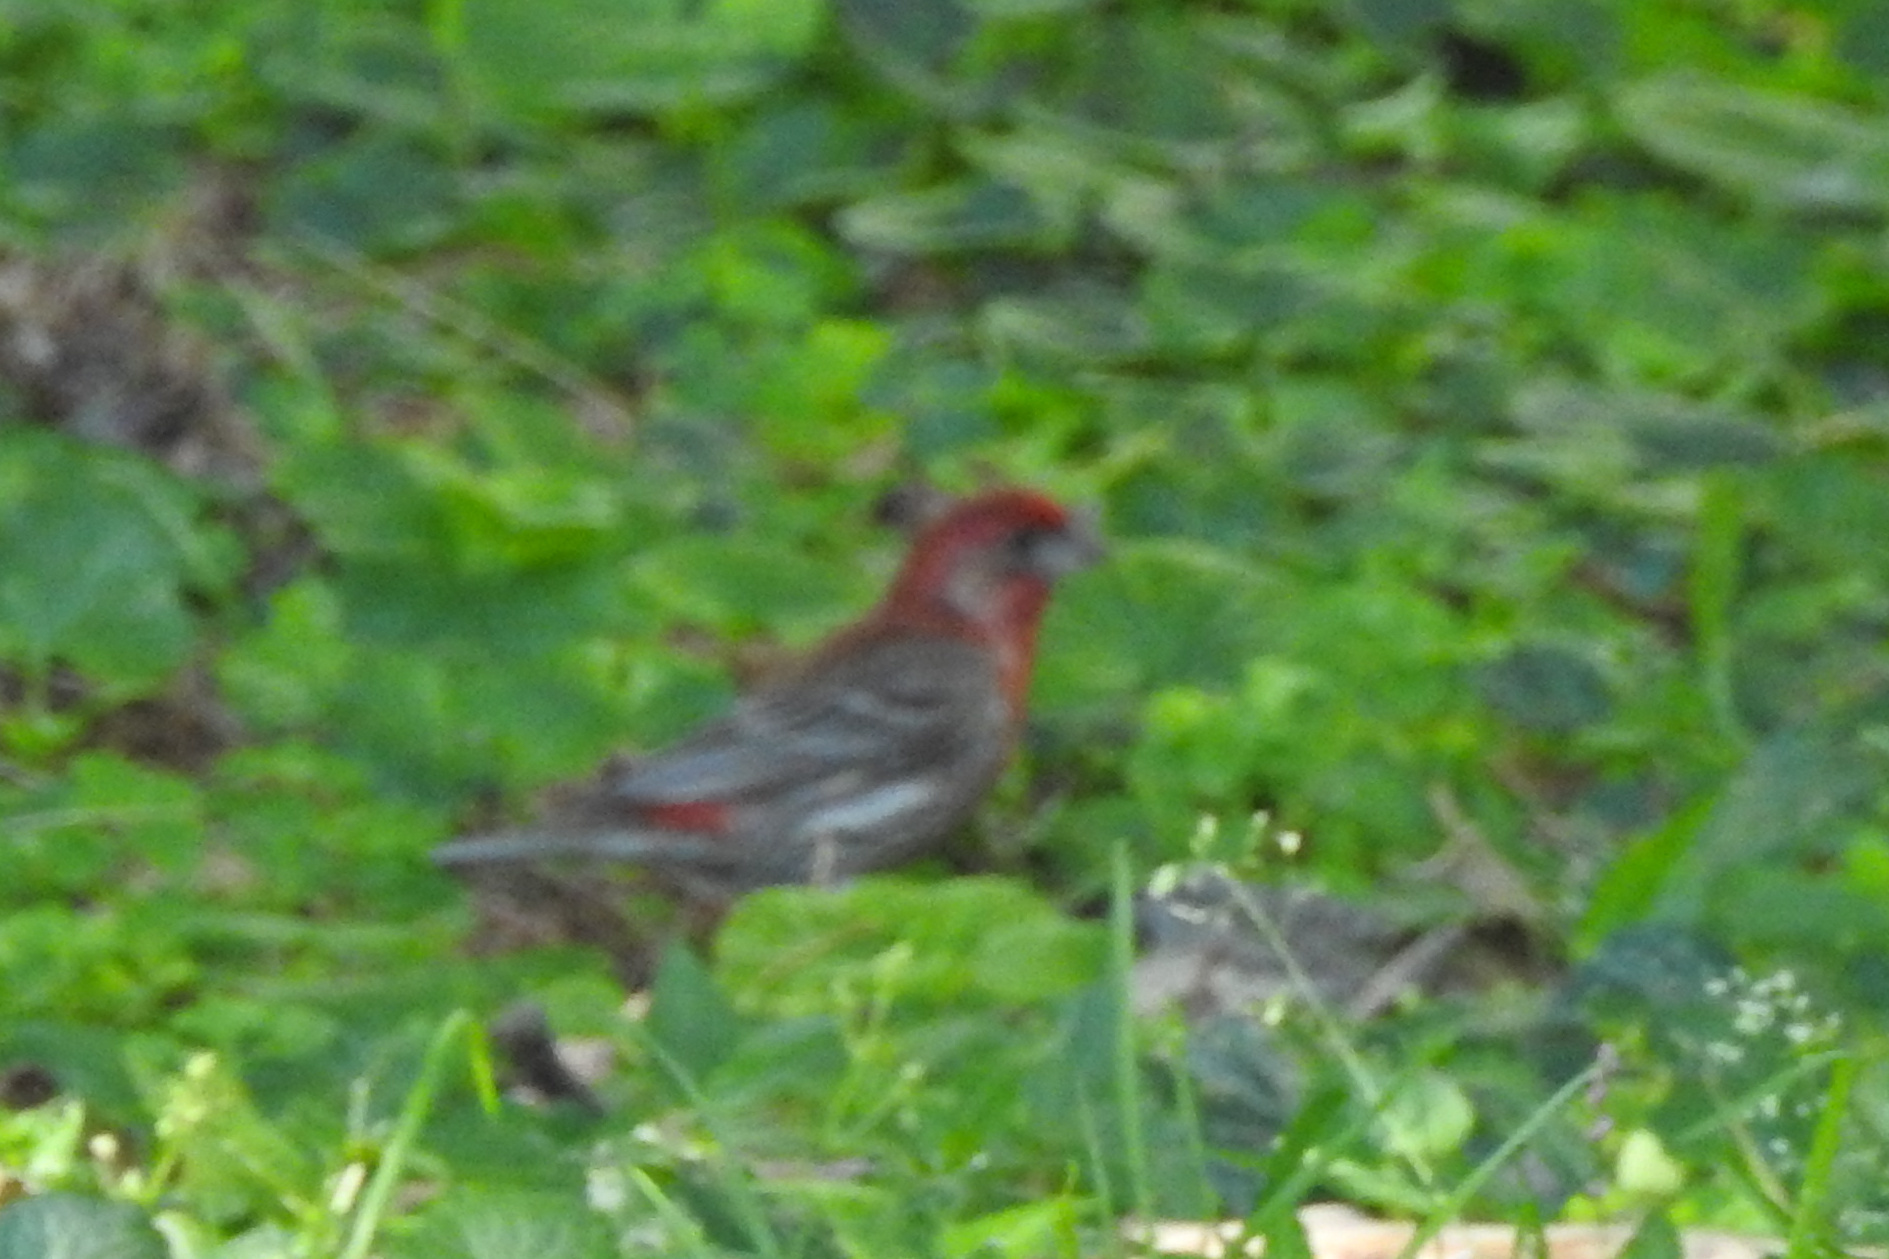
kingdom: Animalia
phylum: Chordata
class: Aves
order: Passeriformes
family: Fringillidae
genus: Haemorhous
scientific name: Haemorhous mexicanus
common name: House finch
